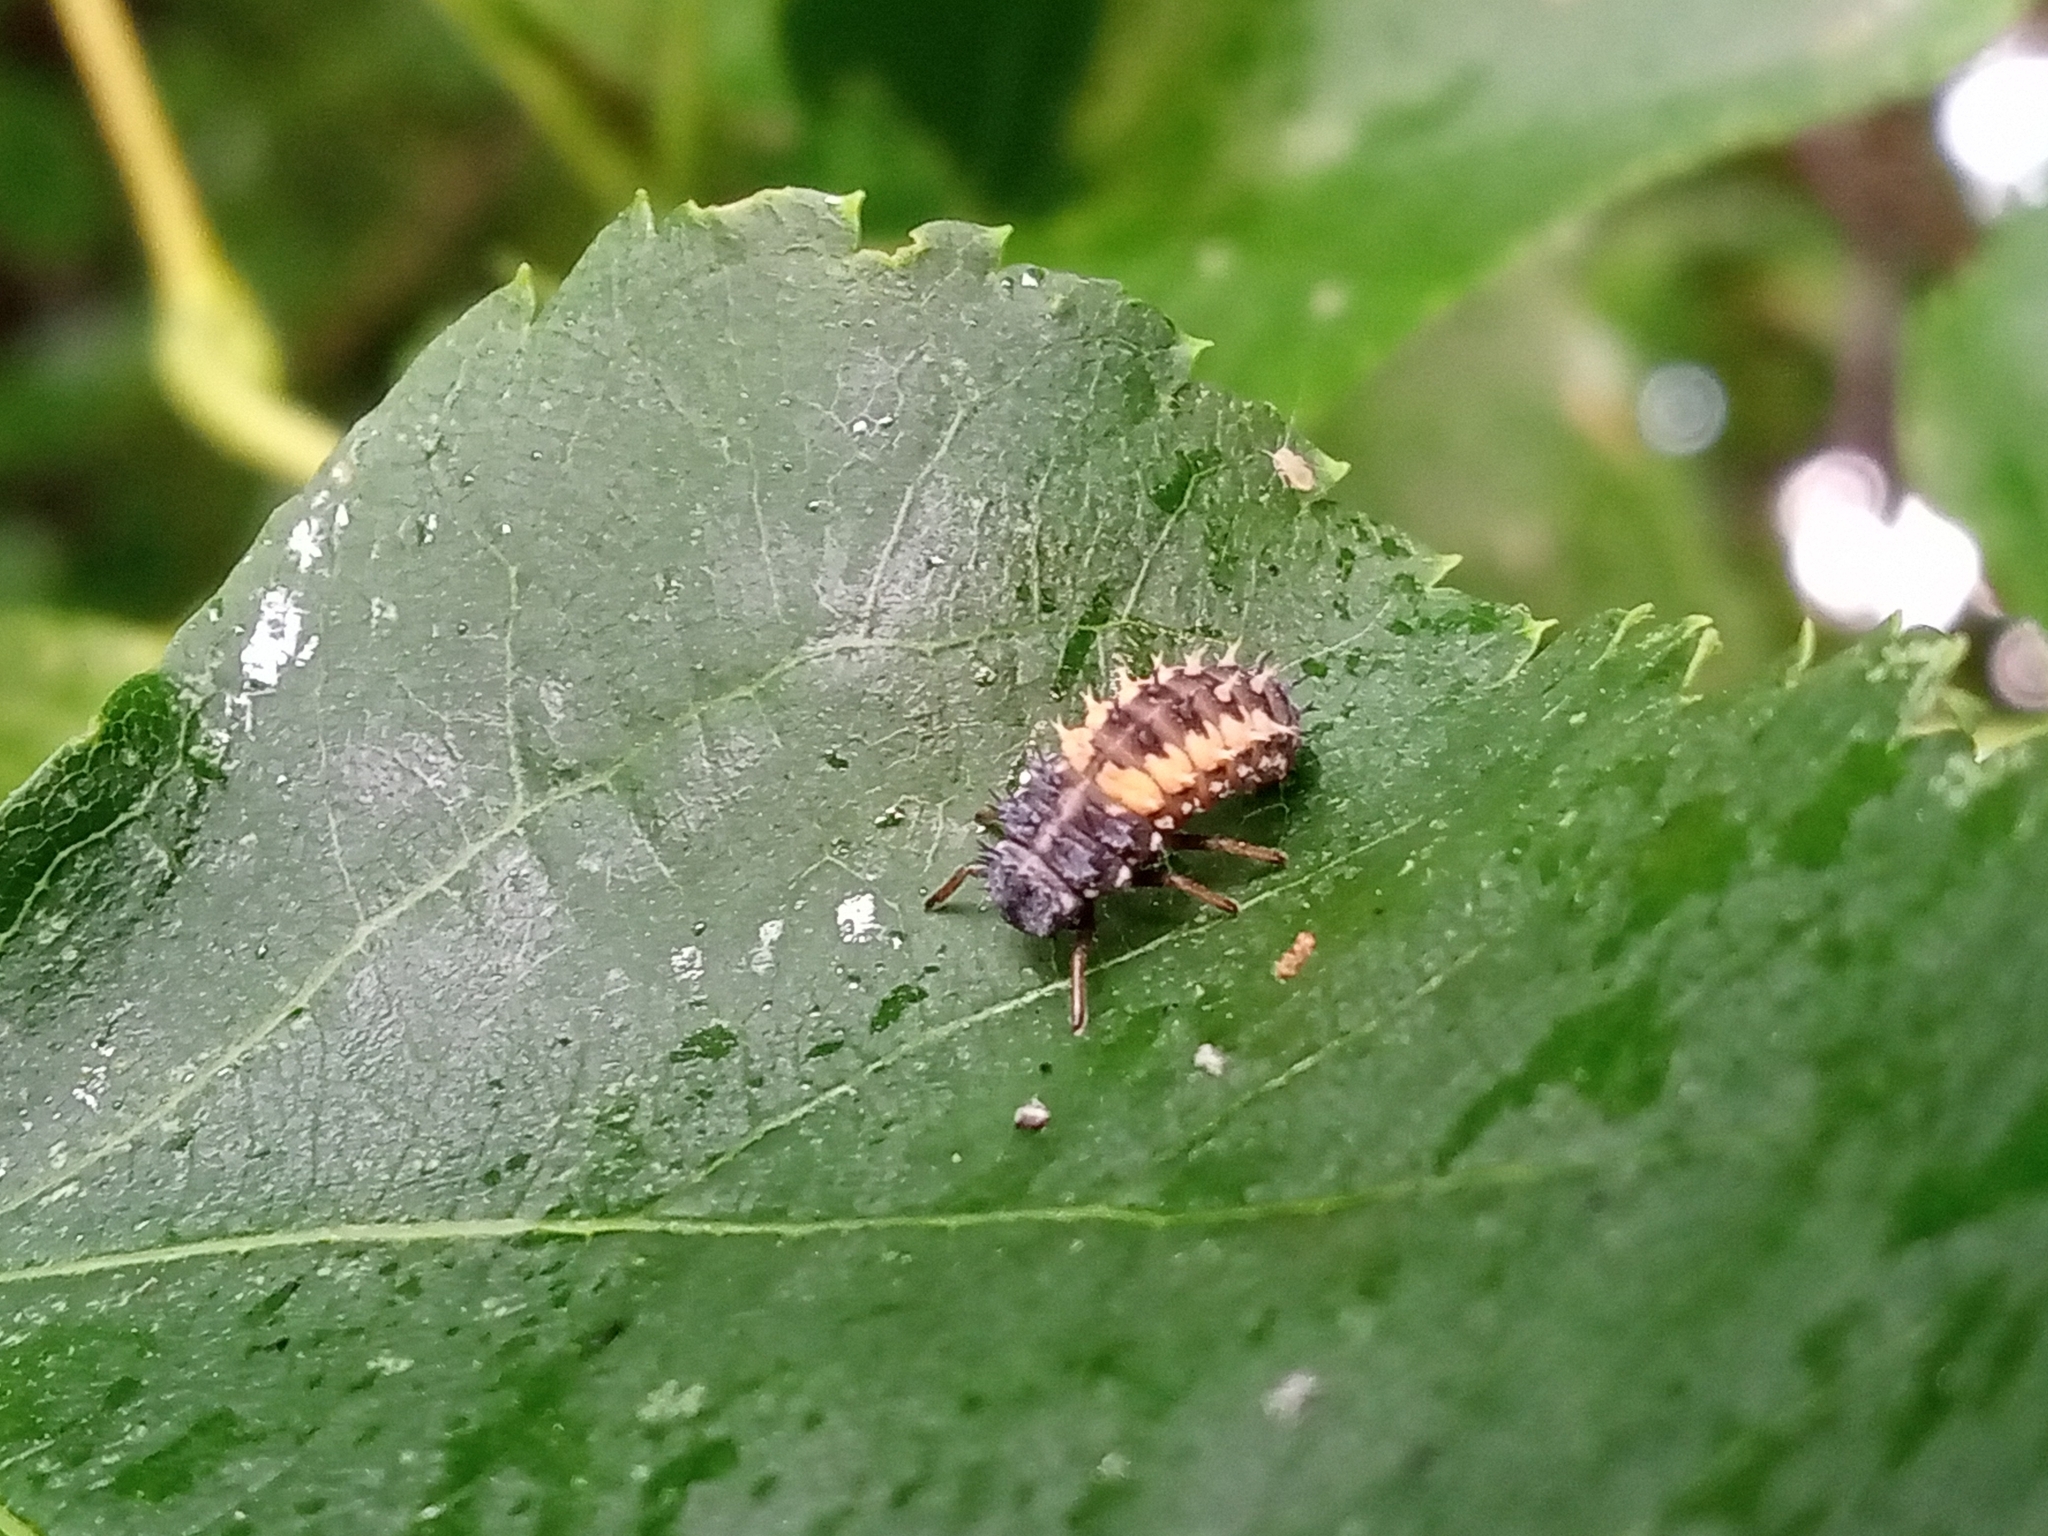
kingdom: Animalia
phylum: Arthropoda
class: Insecta
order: Coleoptera
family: Coccinellidae
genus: Harmonia
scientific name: Harmonia axyridis
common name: Harlequin ladybird
